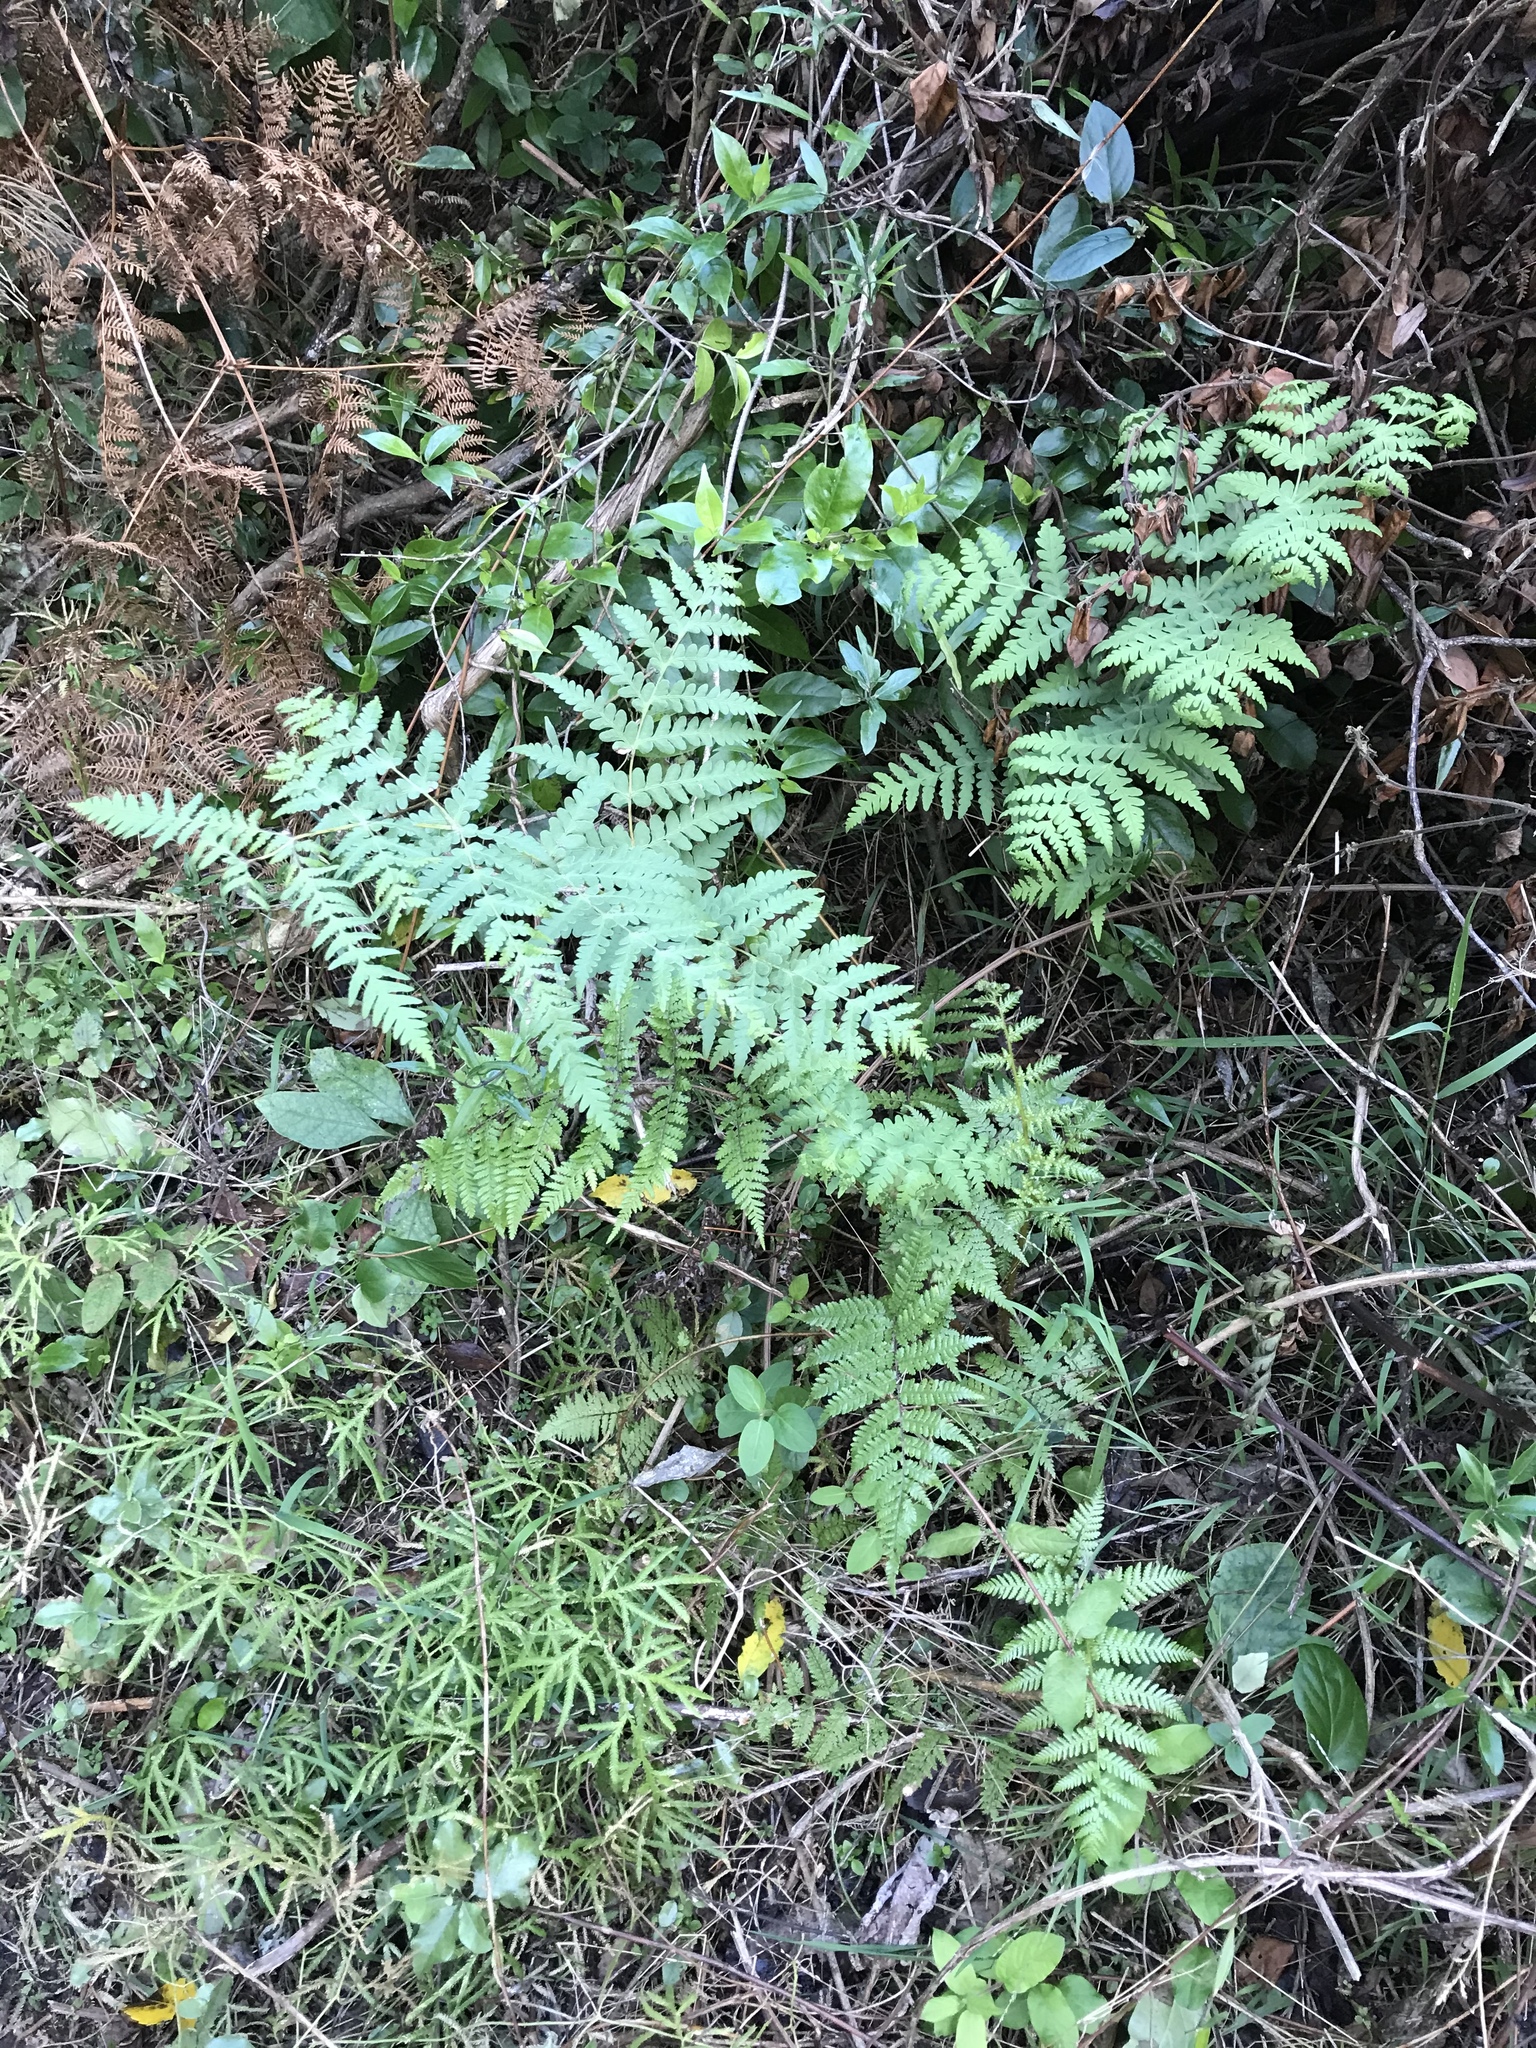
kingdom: Plantae
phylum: Tracheophyta
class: Polypodiopsida
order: Polypodiales
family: Dennstaedtiaceae
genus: Histiopteris
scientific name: Histiopteris incisa
